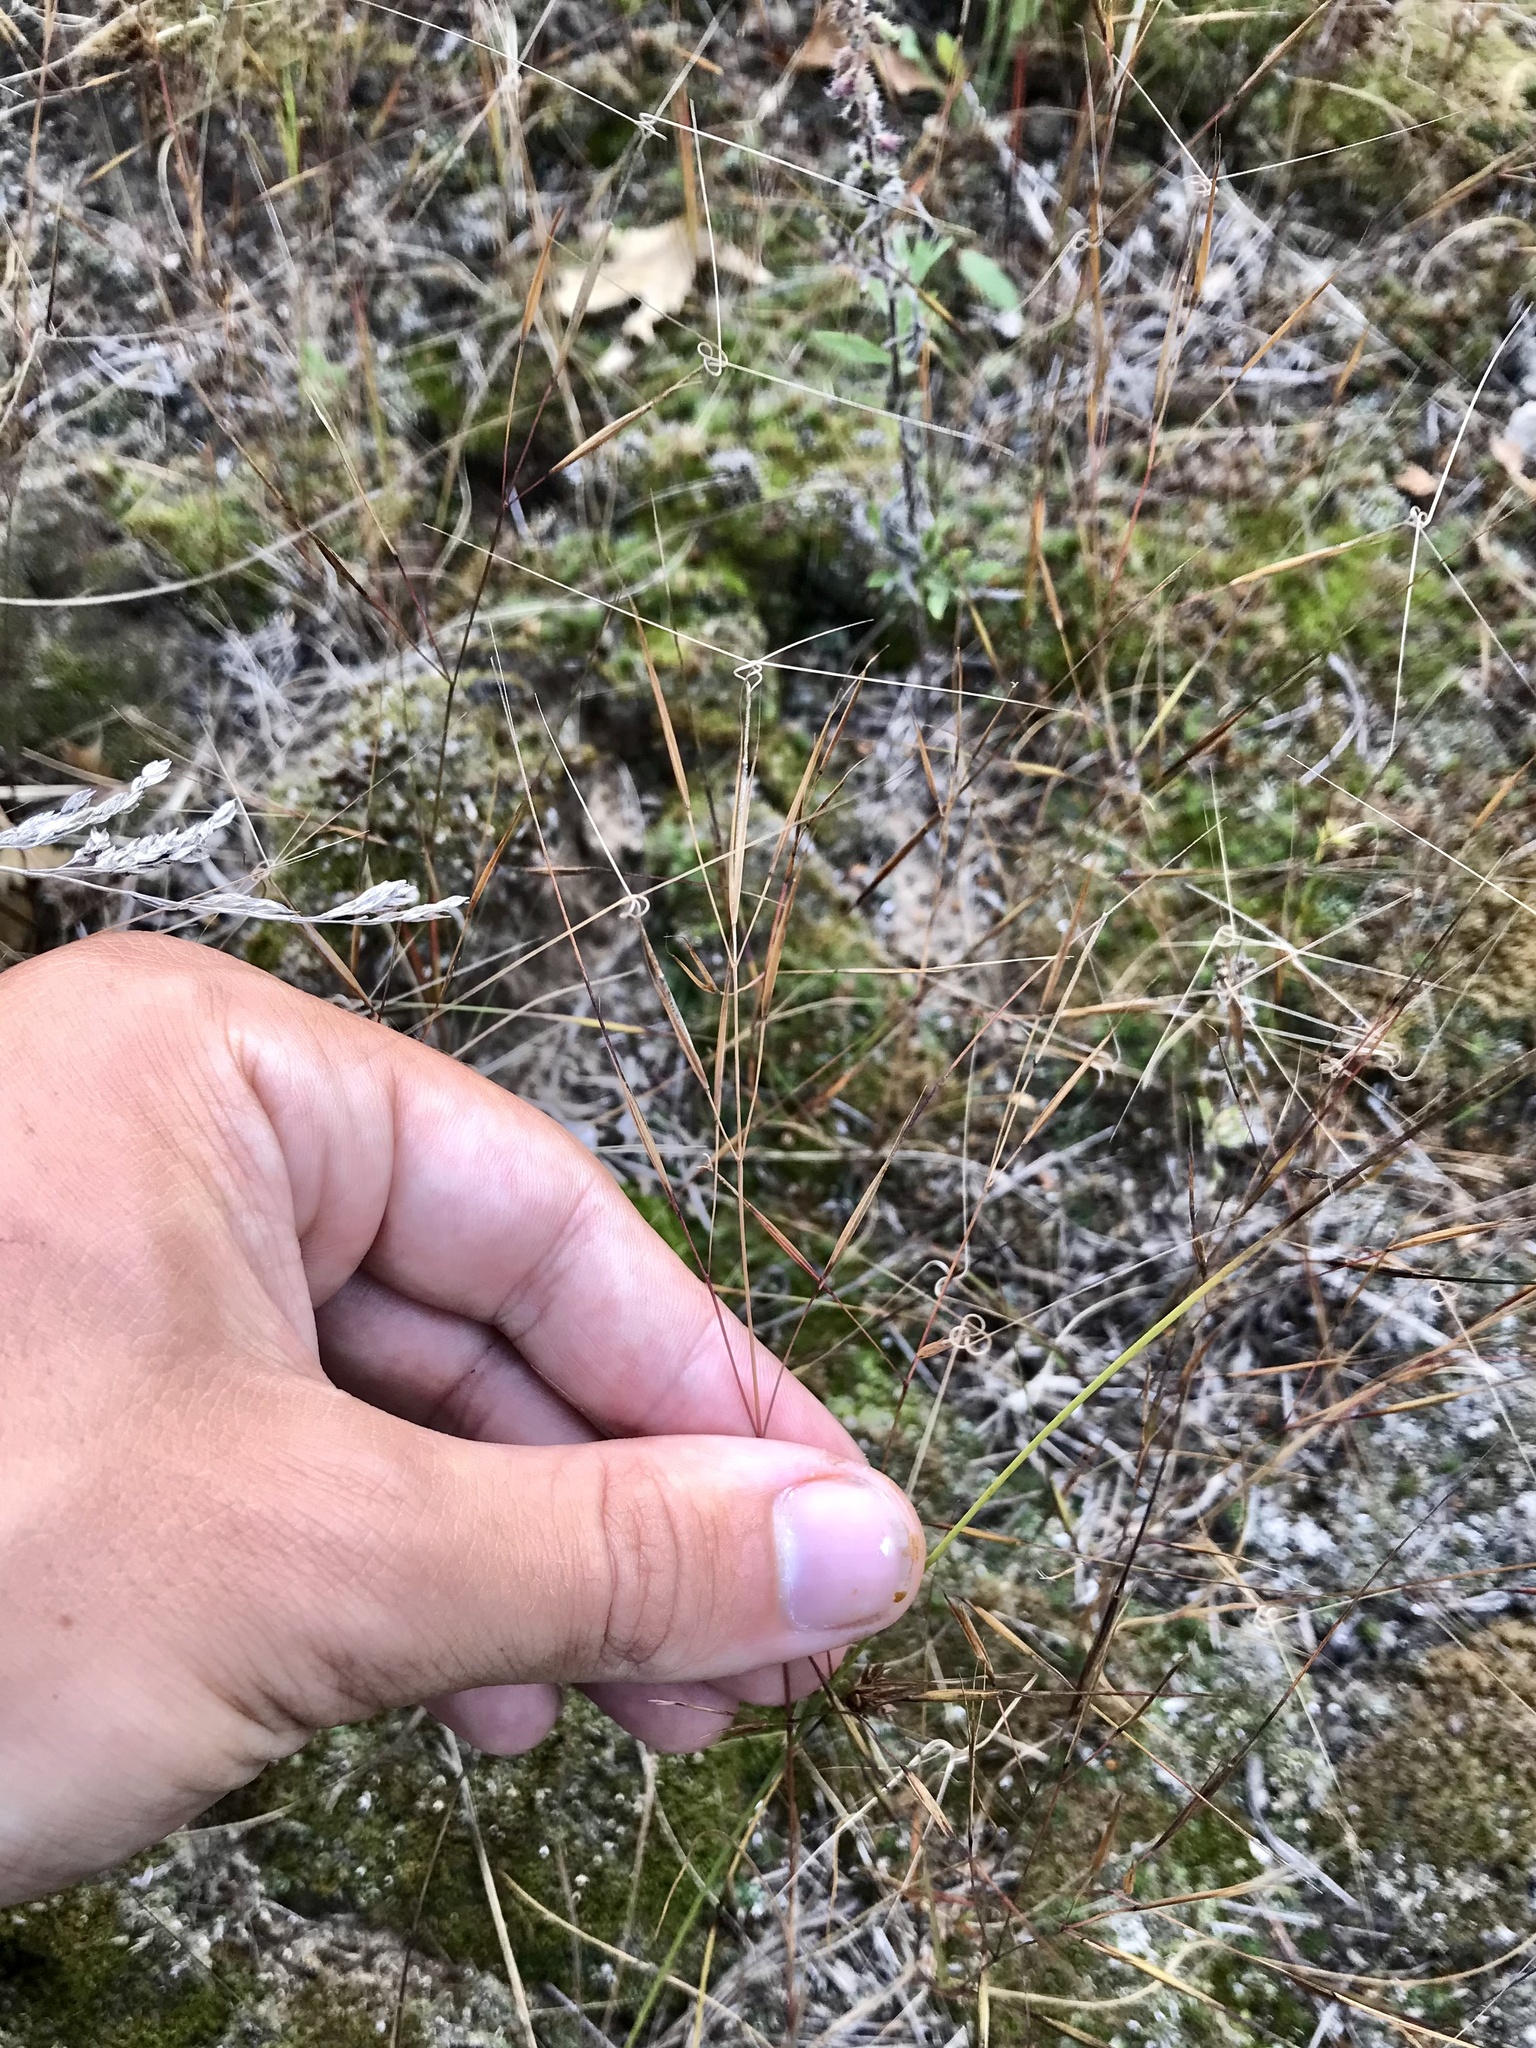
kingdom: Plantae
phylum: Tracheophyta
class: Liliopsida
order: Poales
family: Poaceae
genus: Aristida
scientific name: Aristida tuberculosa
